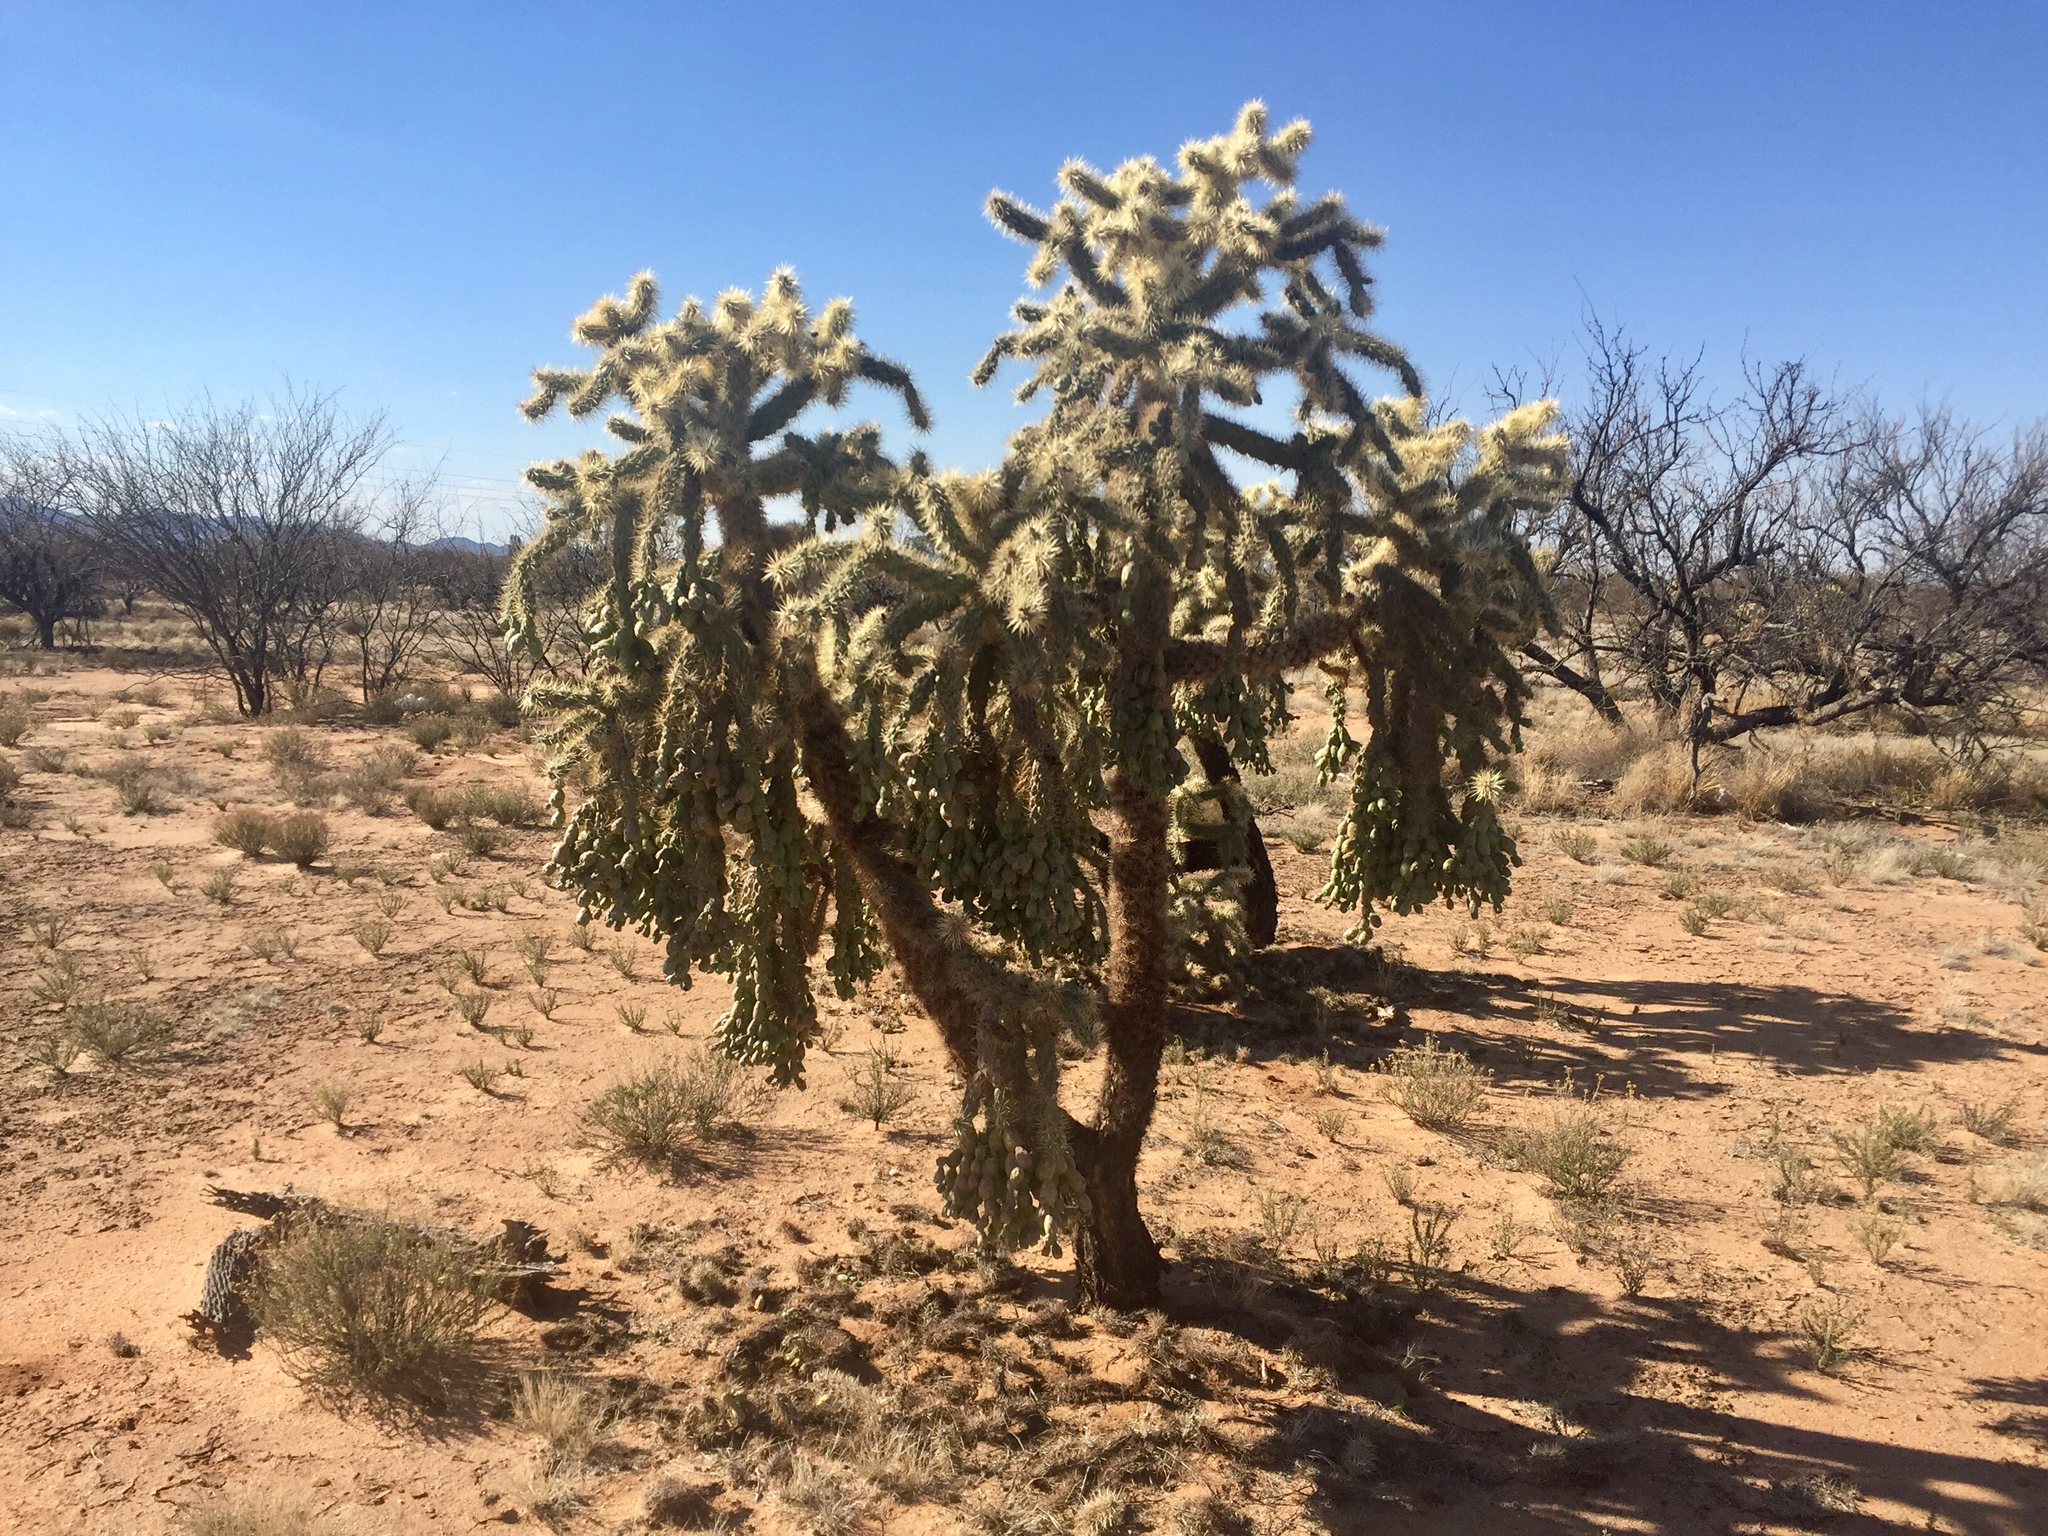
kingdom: Plantae
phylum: Tracheophyta
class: Magnoliopsida
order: Caryophyllales
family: Cactaceae
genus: Cylindropuntia
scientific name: Cylindropuntia fulgida
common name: Jumping cholla
